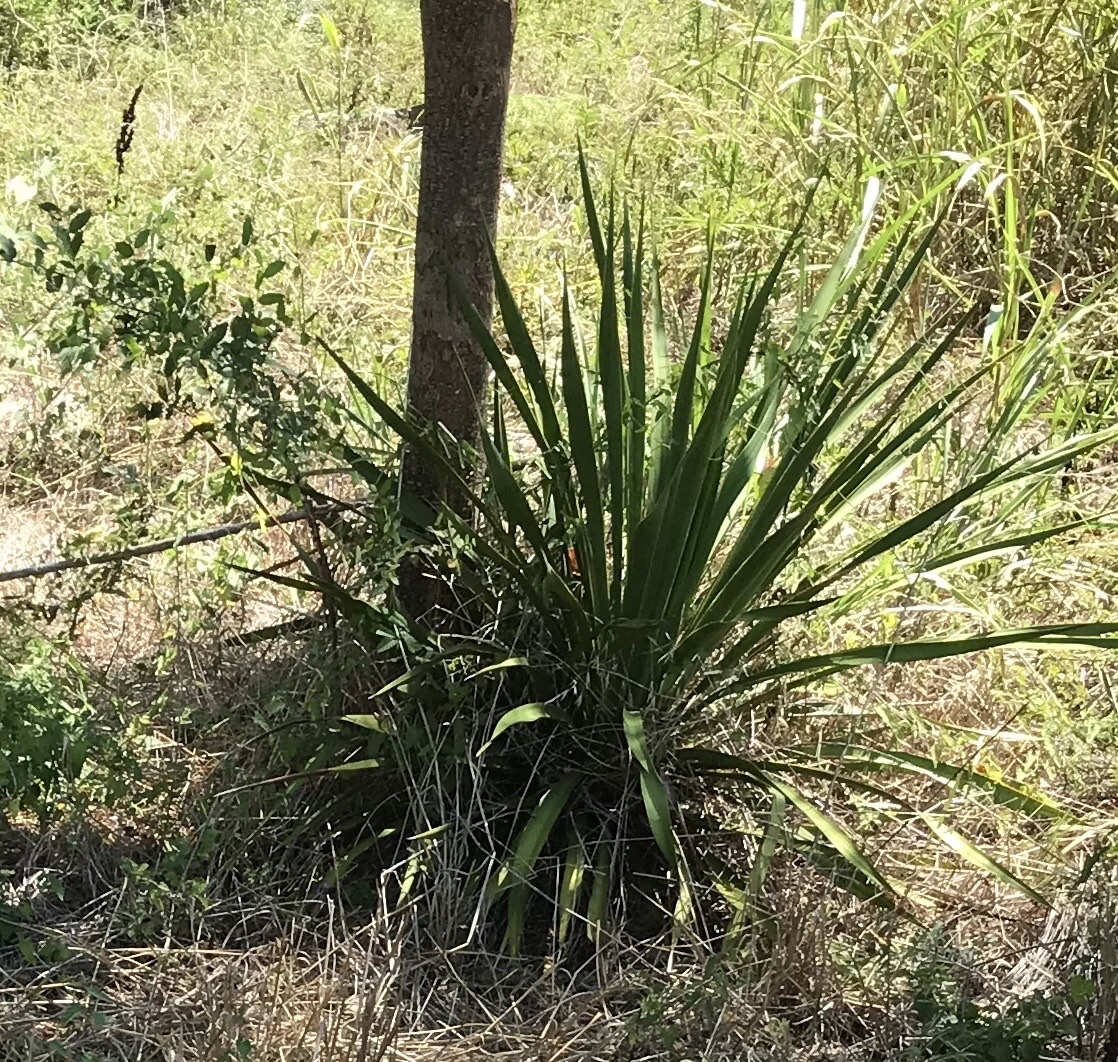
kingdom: Plantae
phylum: Tracheophyta
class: Liliopsida
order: Asparagales
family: Asparagaceae
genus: Yucca
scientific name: Yucca rupicola
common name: Twisted-leaf spanish-dagger
